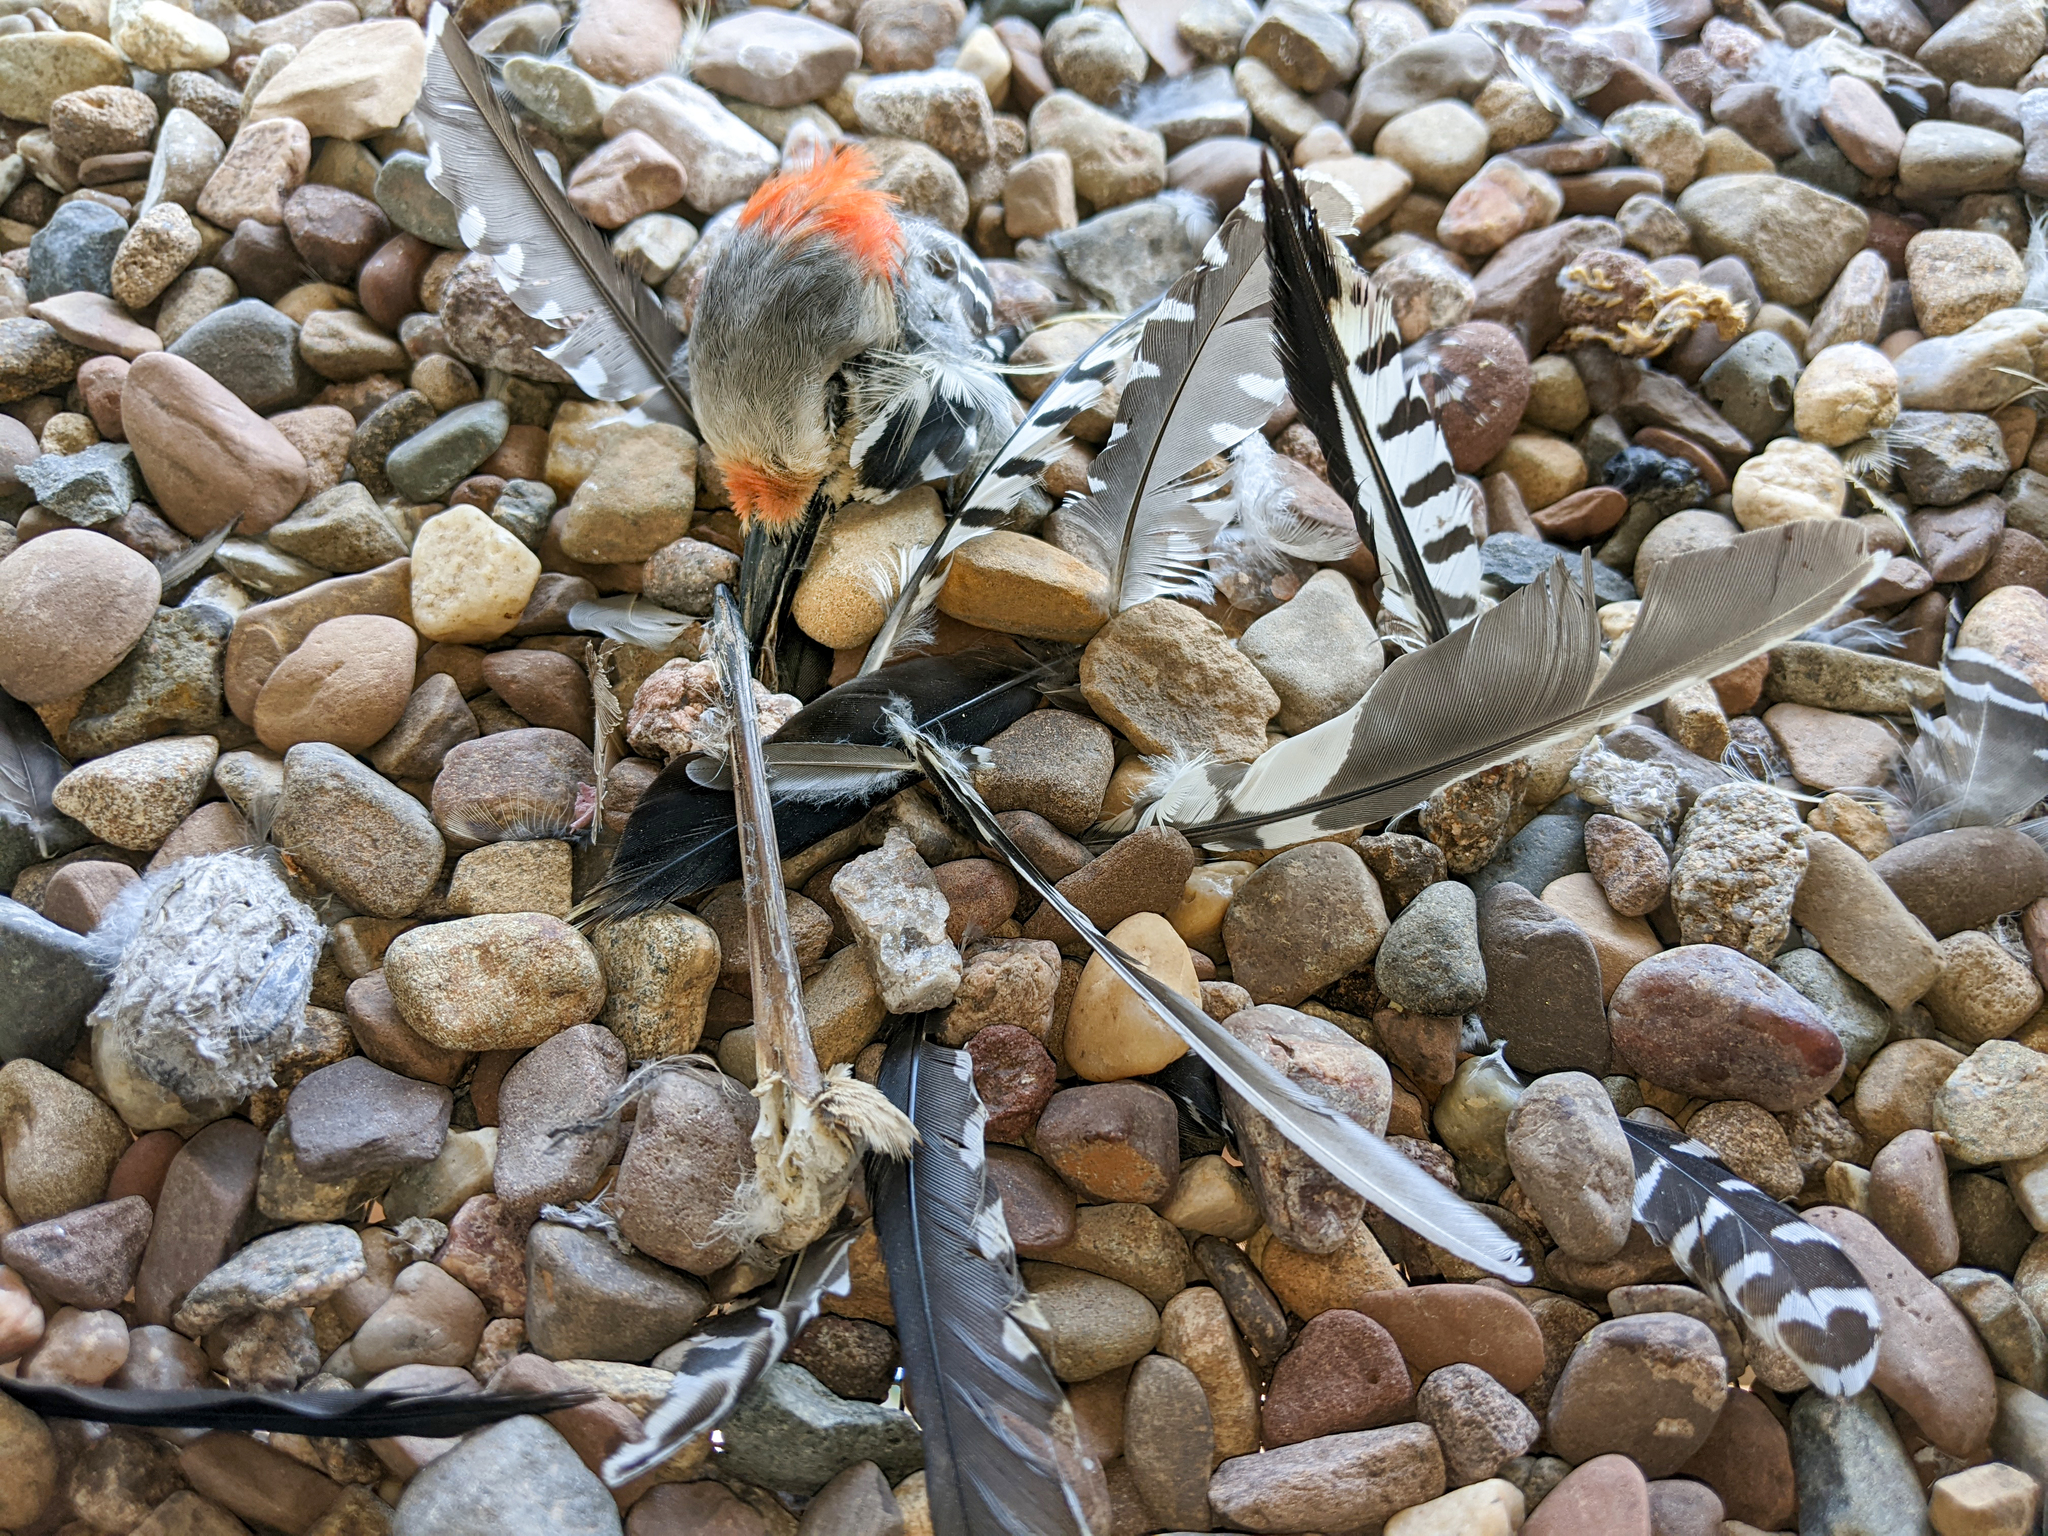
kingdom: Animalia
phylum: Chordata
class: Aves
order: Piciformes
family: Picidae
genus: Melanerpes
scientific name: Melanerpes carolinus
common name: Red-bellied woodpecker
